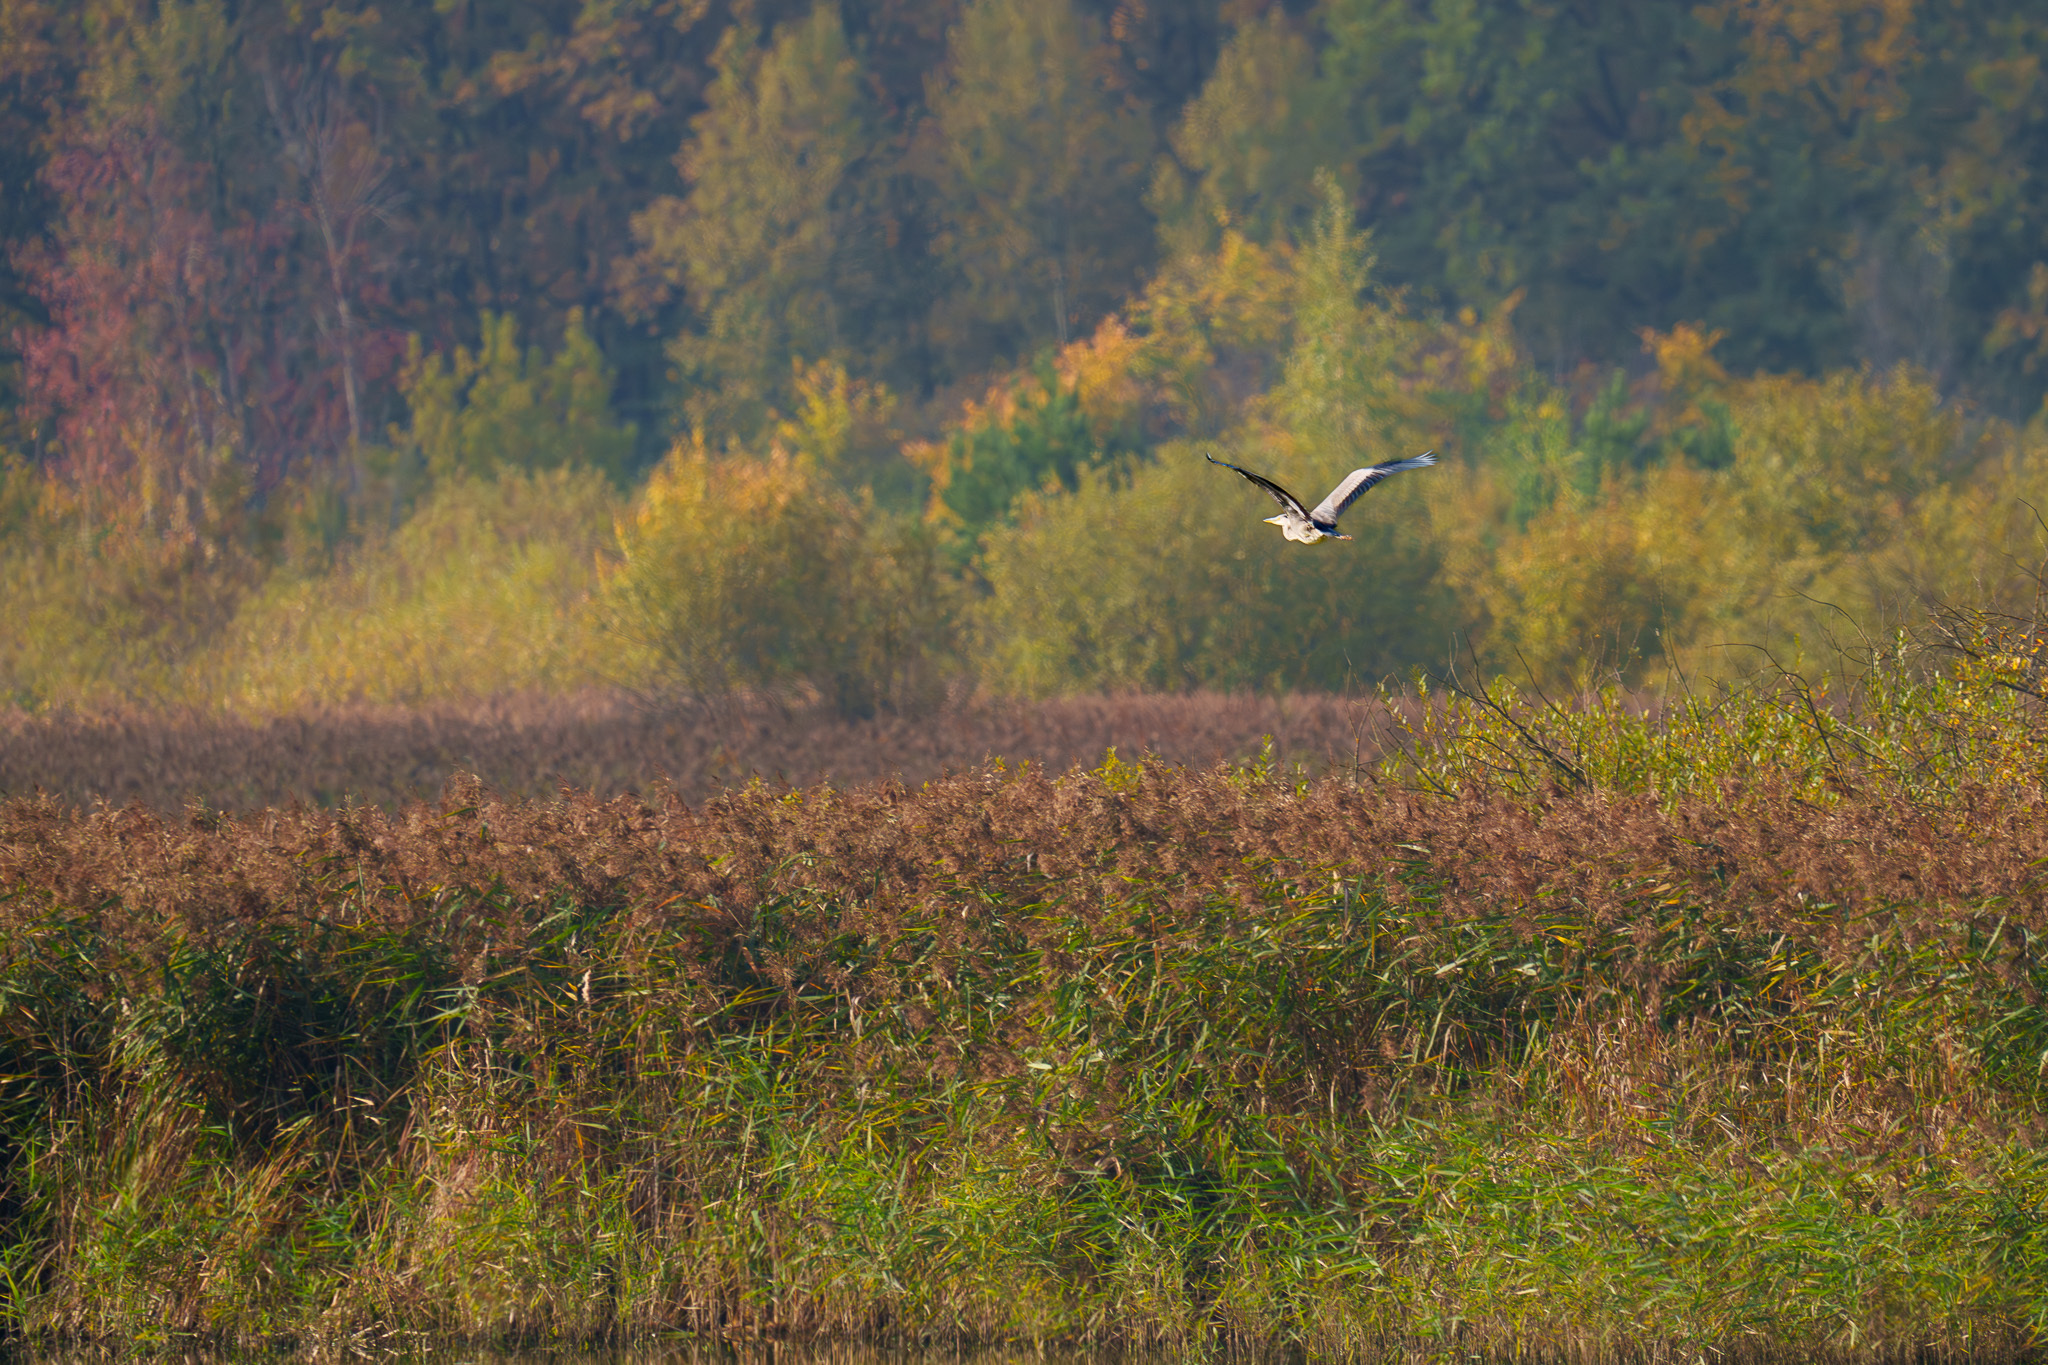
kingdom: Animalia
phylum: Chordata
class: Aves
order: Pelecaniformes
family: Ardeidae
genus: Ardea
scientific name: Ardea cinerea
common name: Grey heron
